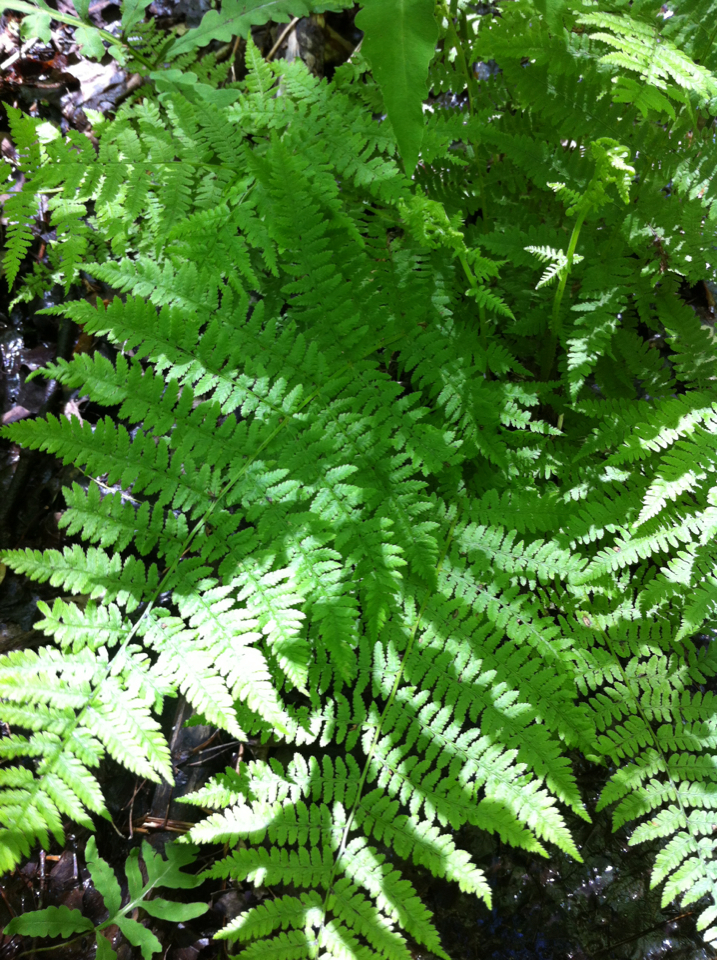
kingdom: Plantae
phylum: Tracheophyta
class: Polypodiopsida
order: Polypodiales
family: Athyriaceae
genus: Athyrium
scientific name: Athyrium angustum
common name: Northern lady fern
